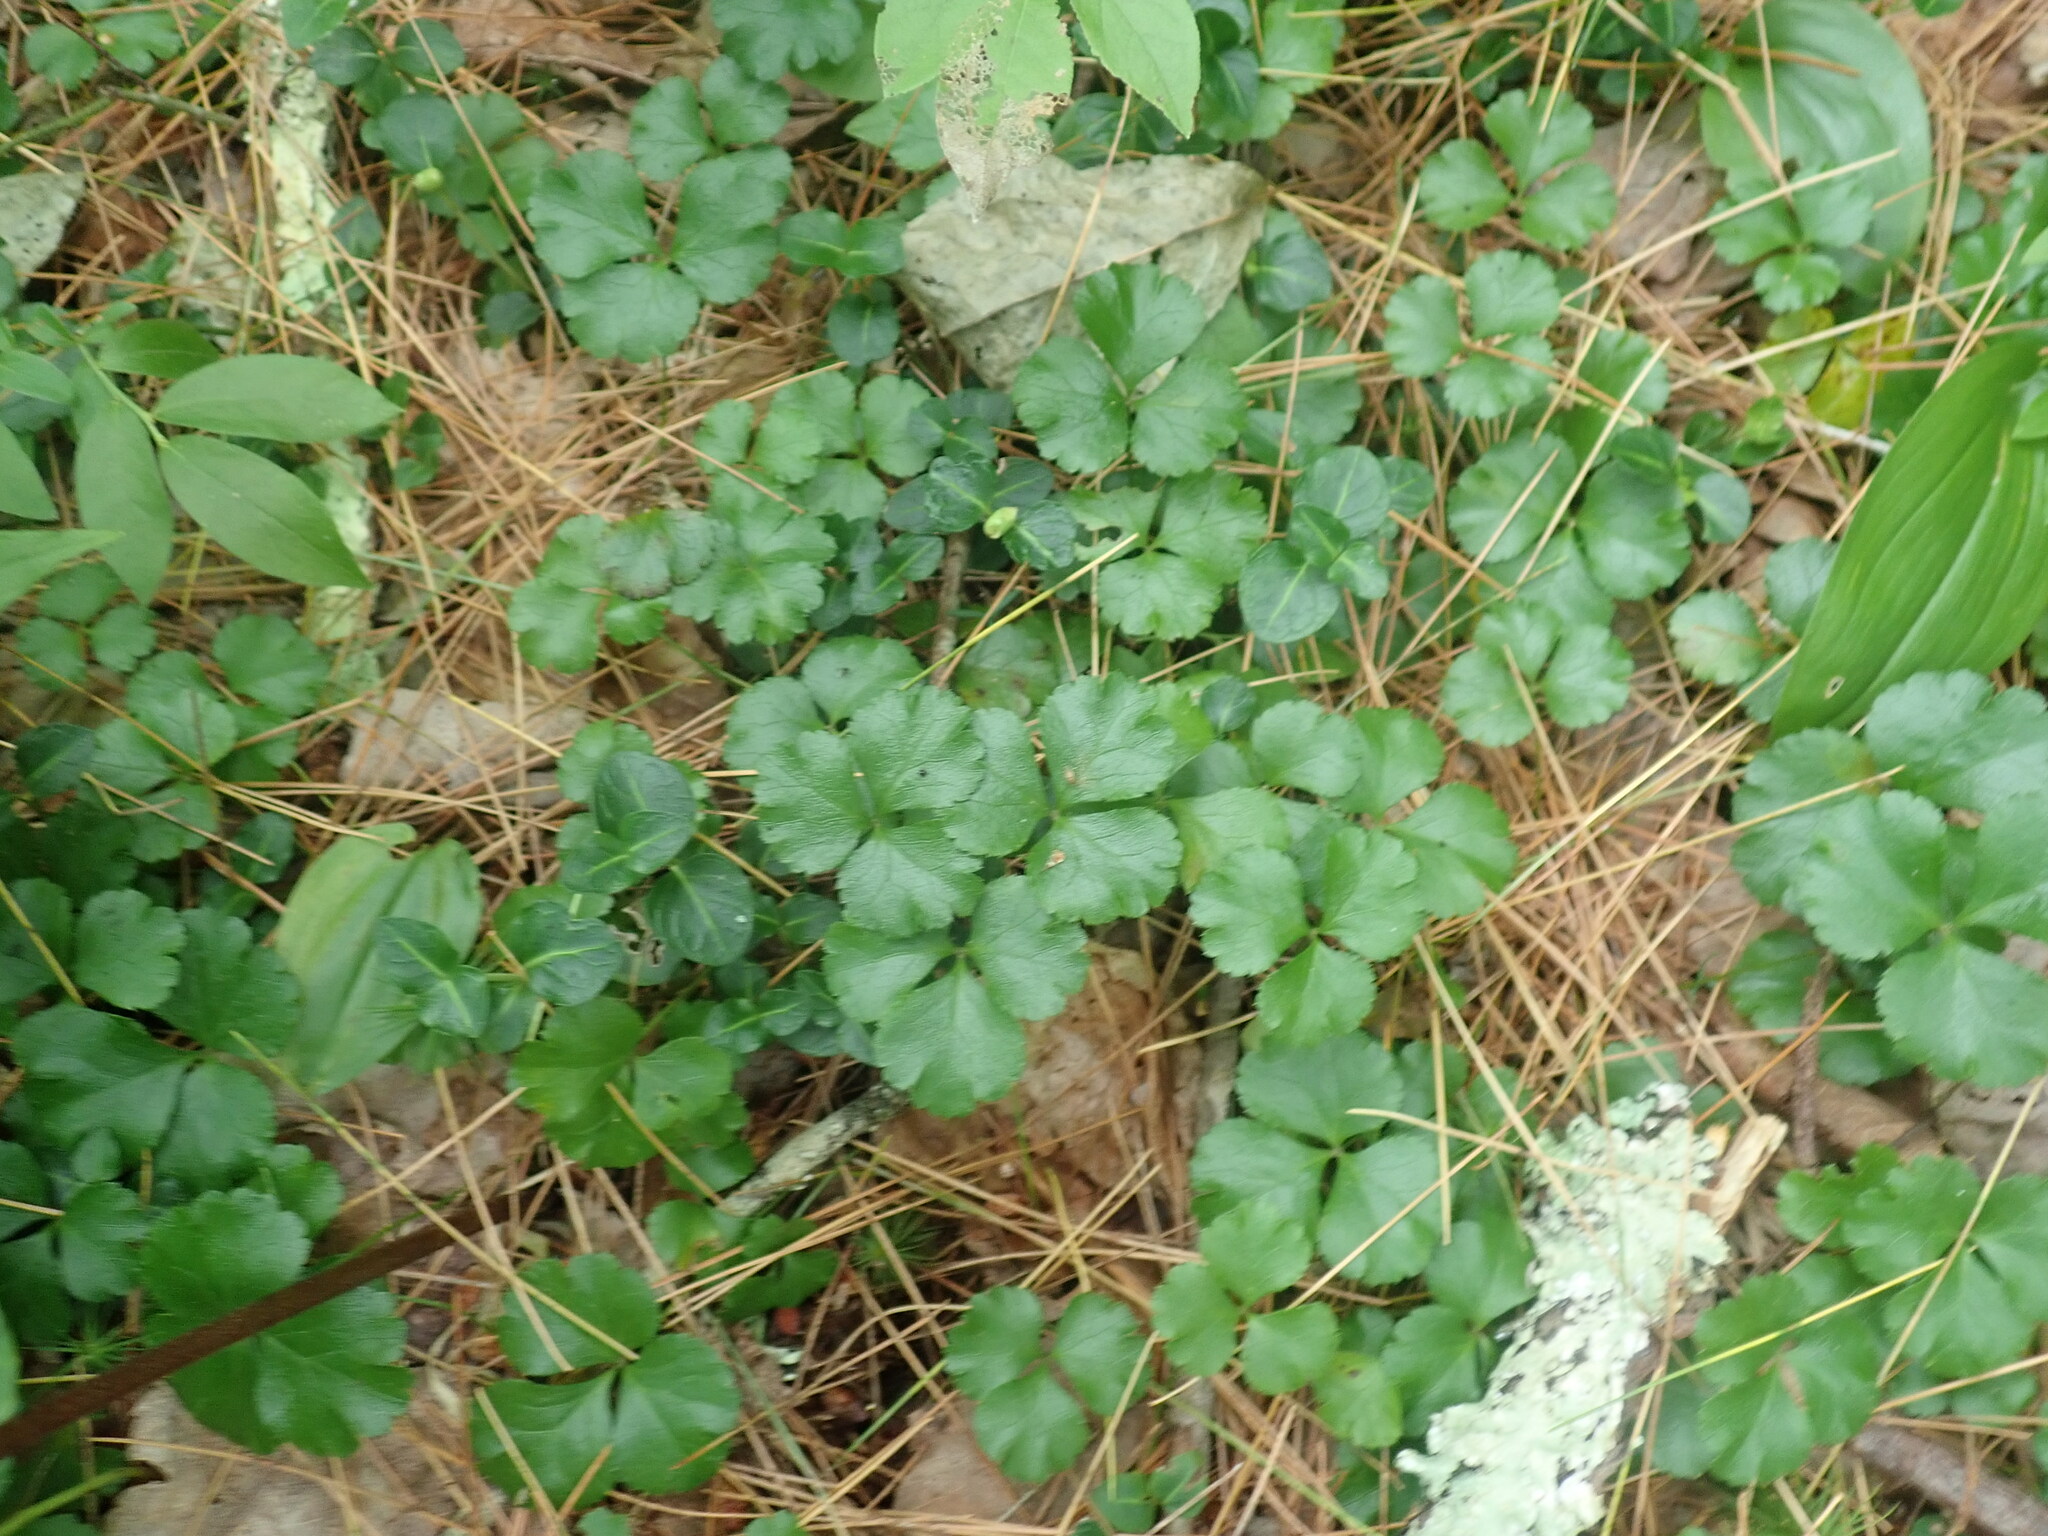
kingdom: Plantae
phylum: Tracheophyta
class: Magnoliopsida
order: Ranunculales
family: Ranunculaceae
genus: Coptis
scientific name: Coptis trifolia
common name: Canker-root
